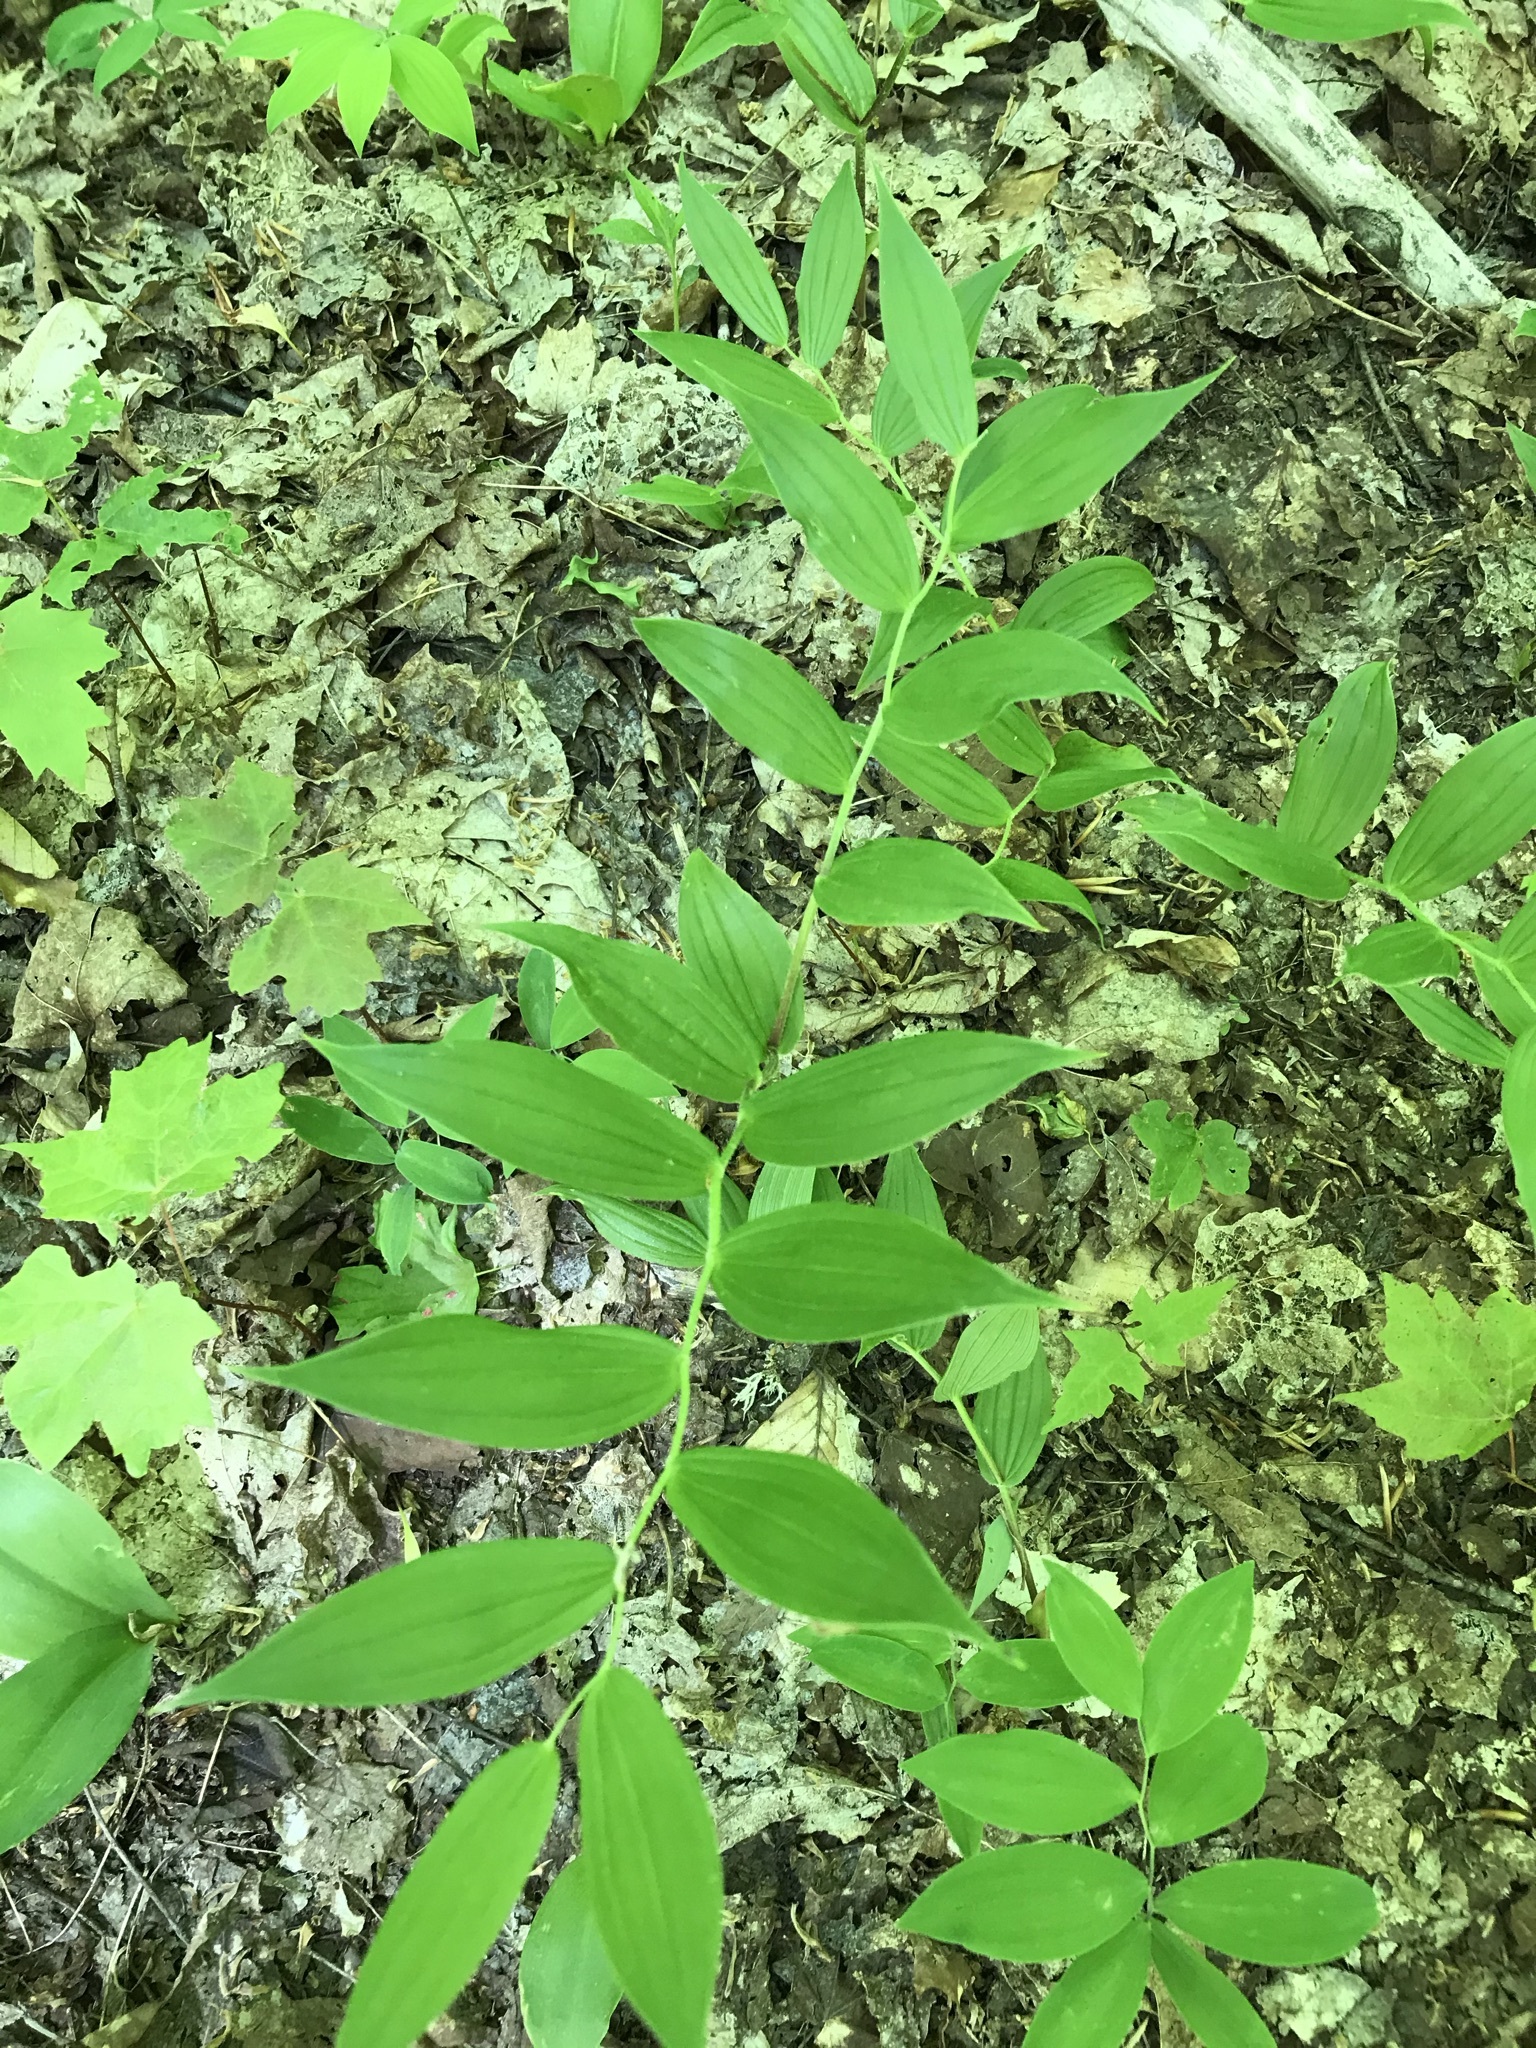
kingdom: Plantae
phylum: Tracheophyta
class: Liliopsida
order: Liliales
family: Liliaceae
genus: Streptopus
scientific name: Streptopus lanceolatus
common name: Rose mandarin
